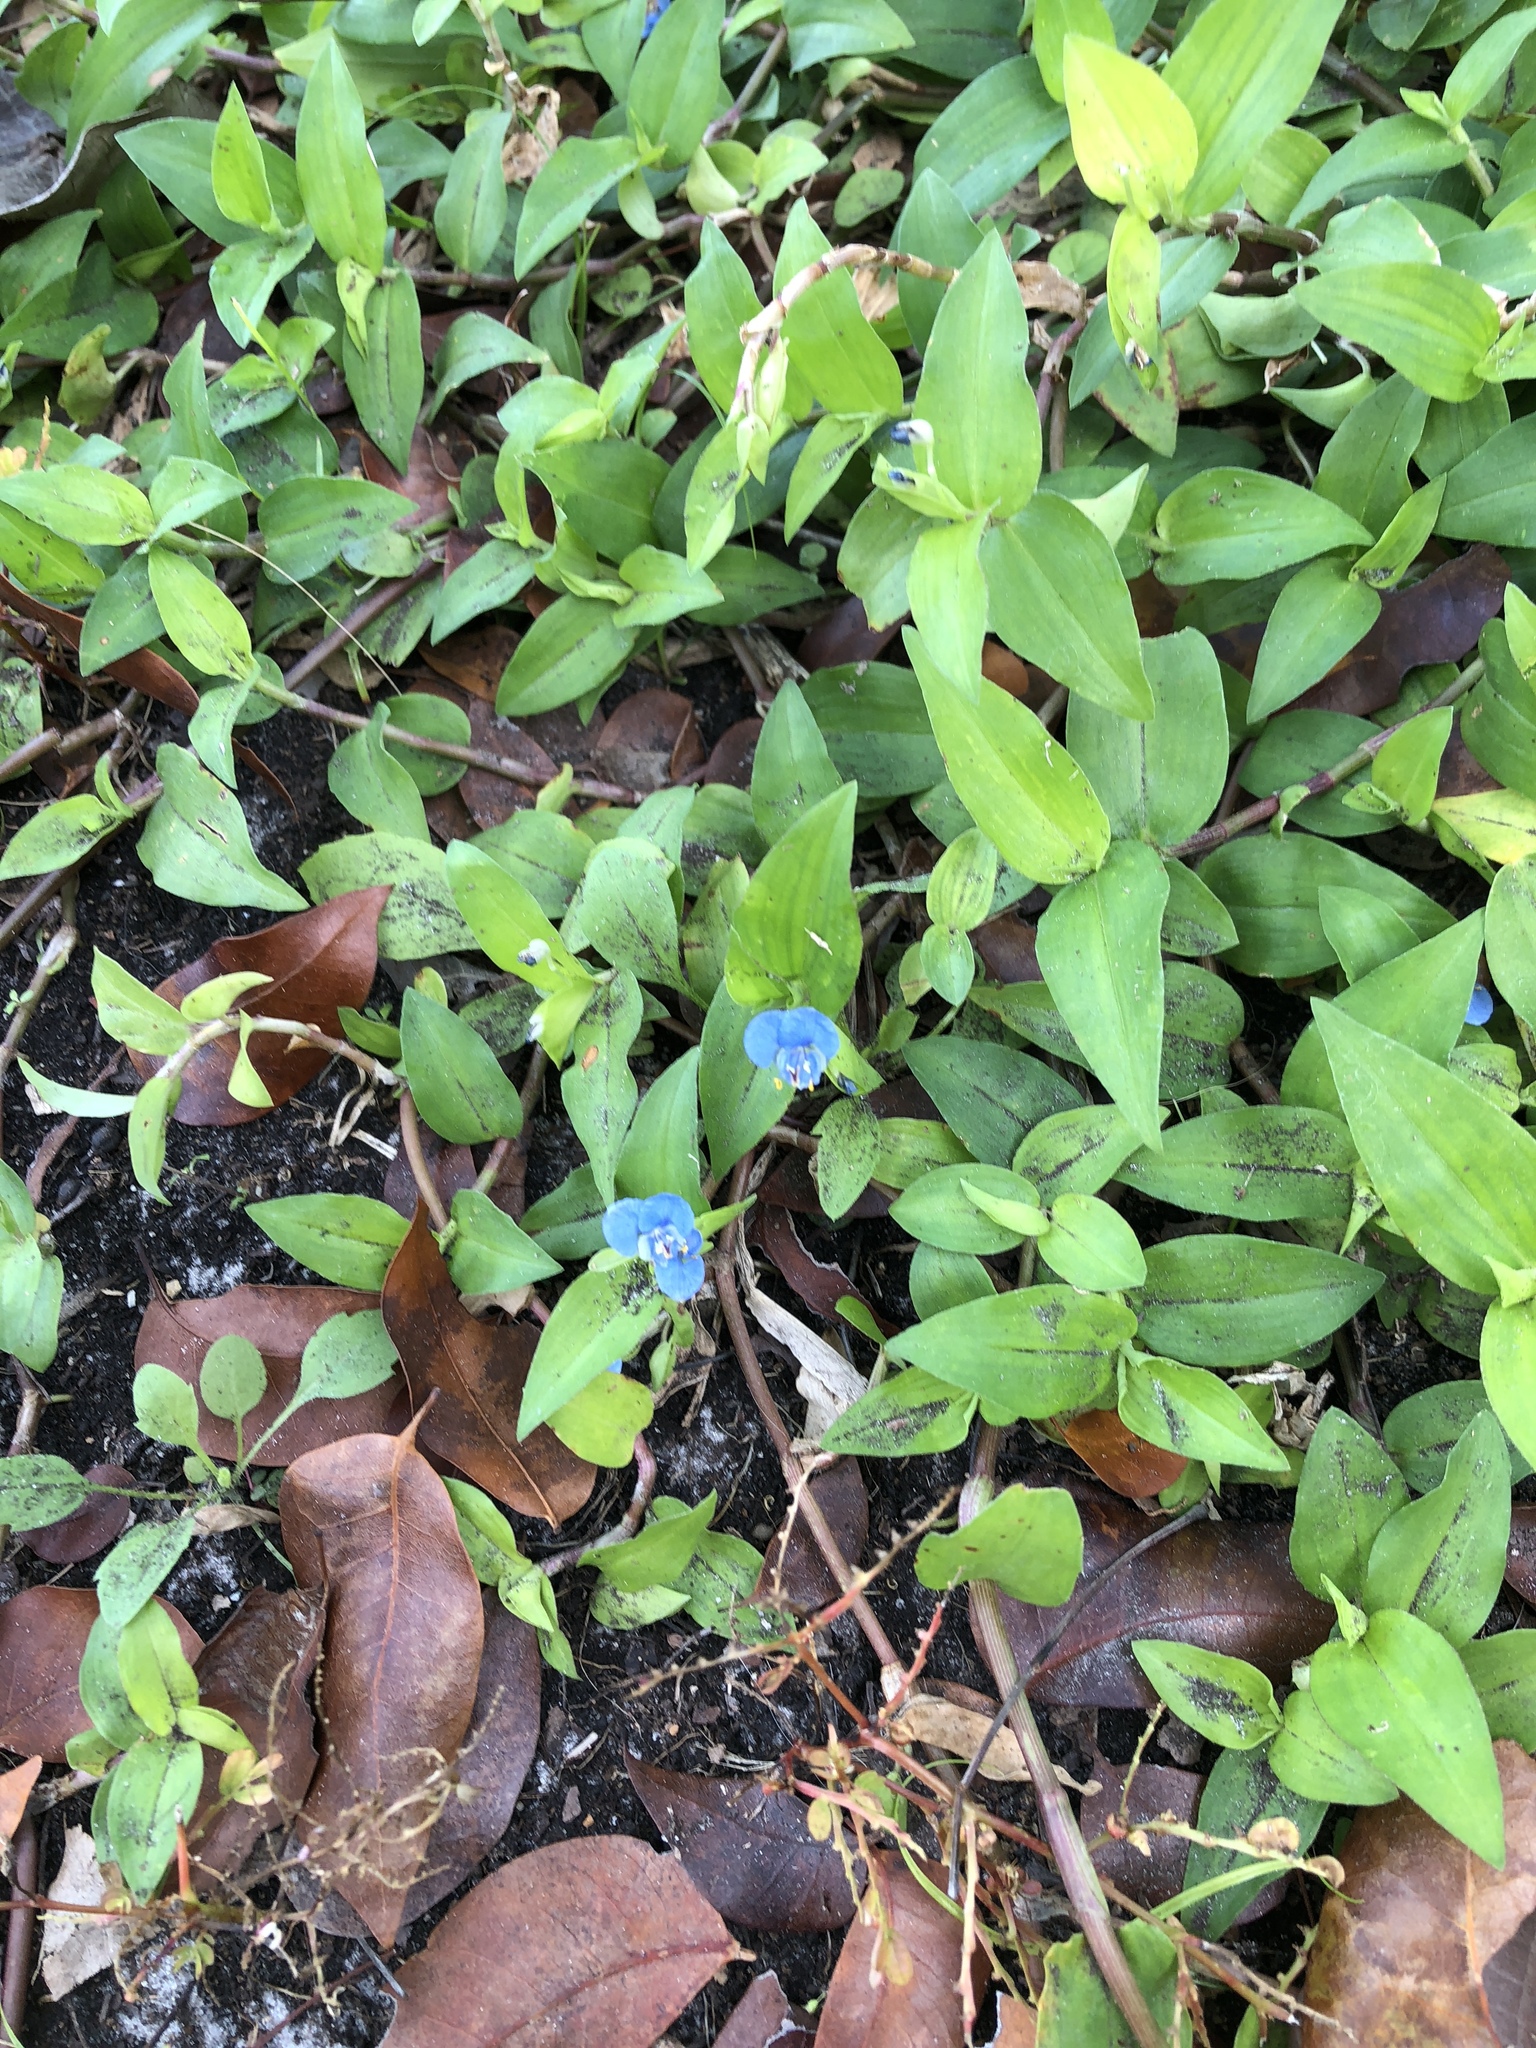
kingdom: Plantae
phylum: Tracheophyta
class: Liliopsida
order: Commelinales
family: Commelinaceae
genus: Commelina
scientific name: Commelina diffusa
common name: Climbing dayflower
